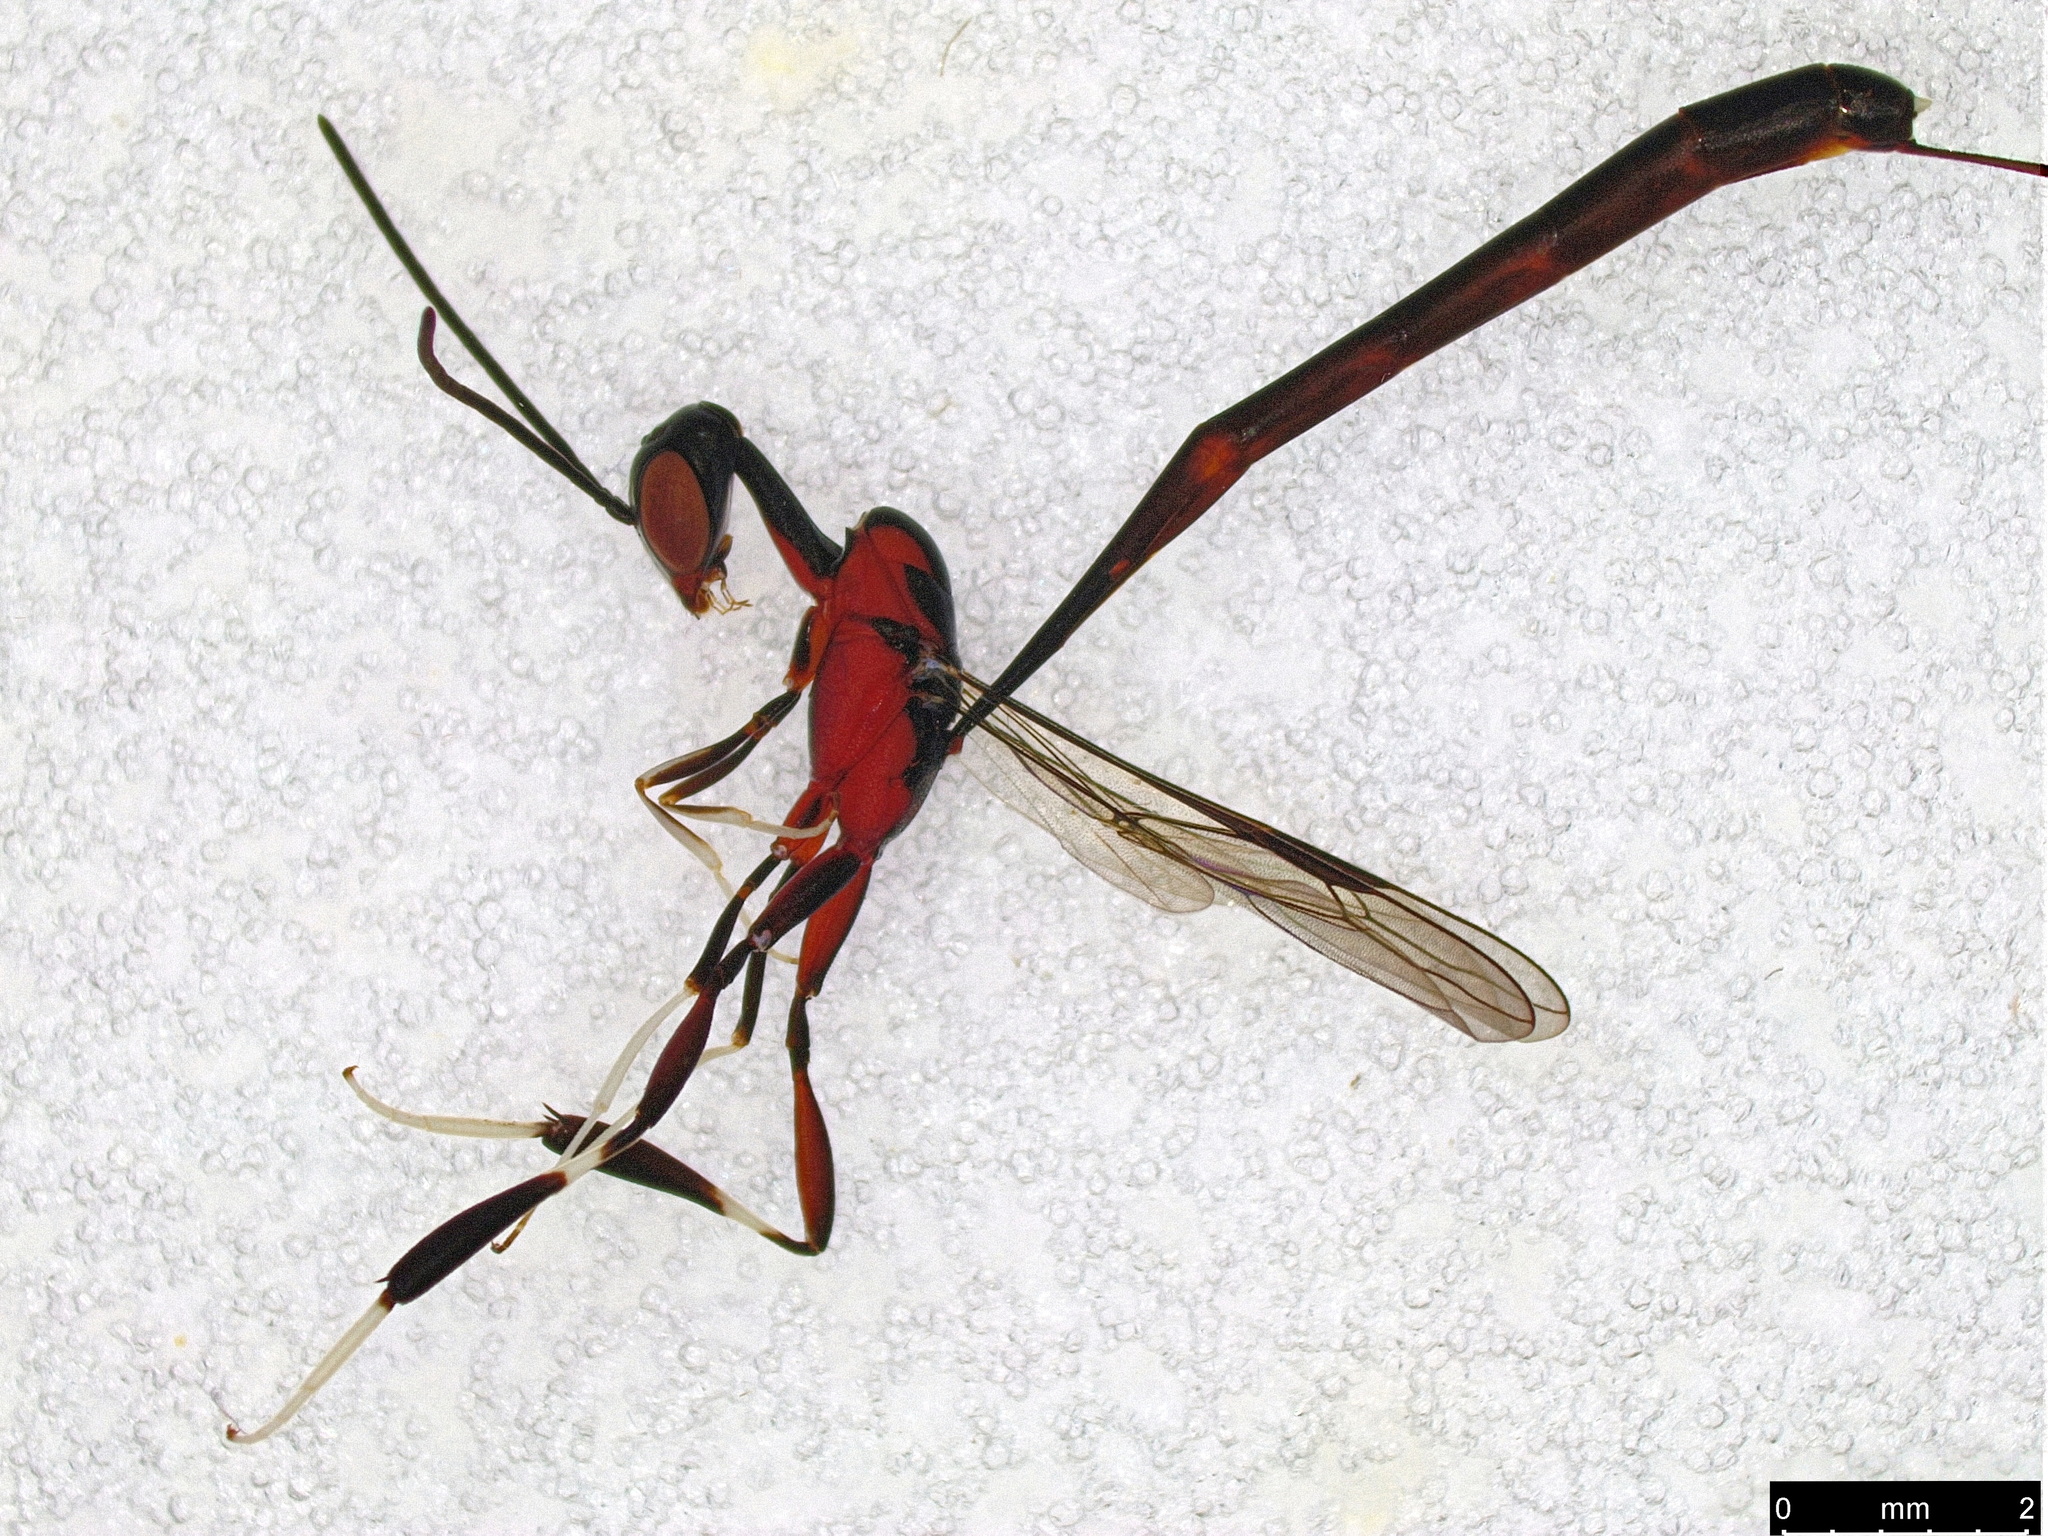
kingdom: Animalia
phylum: Arthropoda
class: Insecta
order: Hymenoptera
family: Gasteruptiidae
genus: Gasteruption
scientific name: Gasteruption
